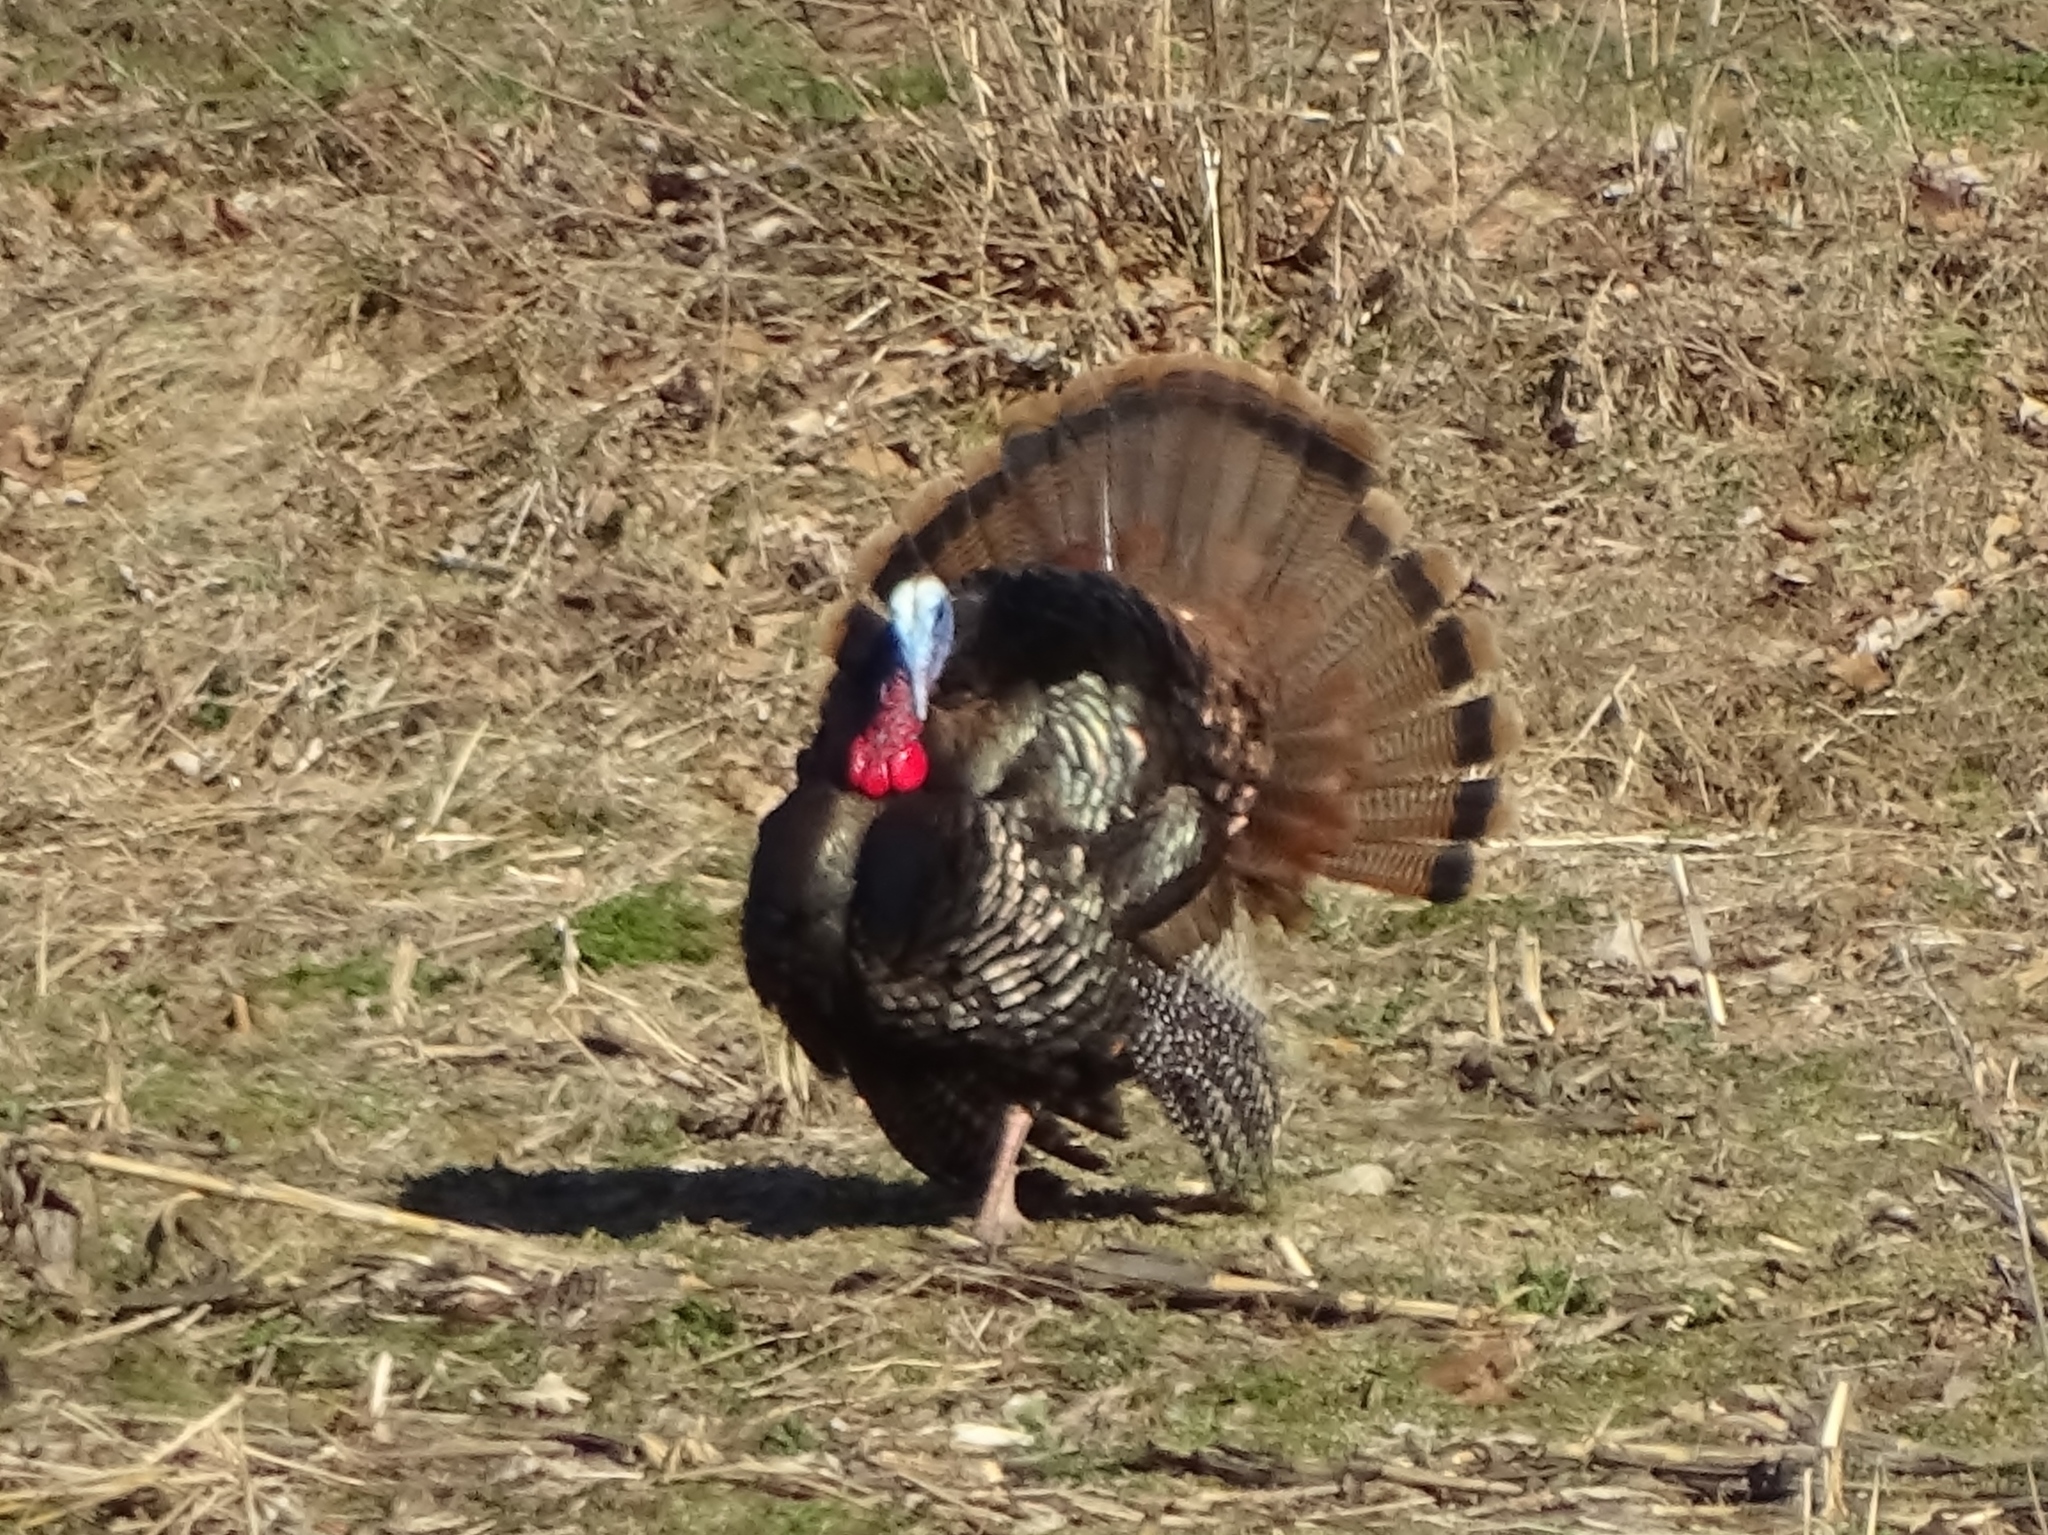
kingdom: Animalia
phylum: Chordata
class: Aves
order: Galliformes
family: Phasianidae
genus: Meleagris
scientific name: Meleagris gallopavo
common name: Wild turkey
